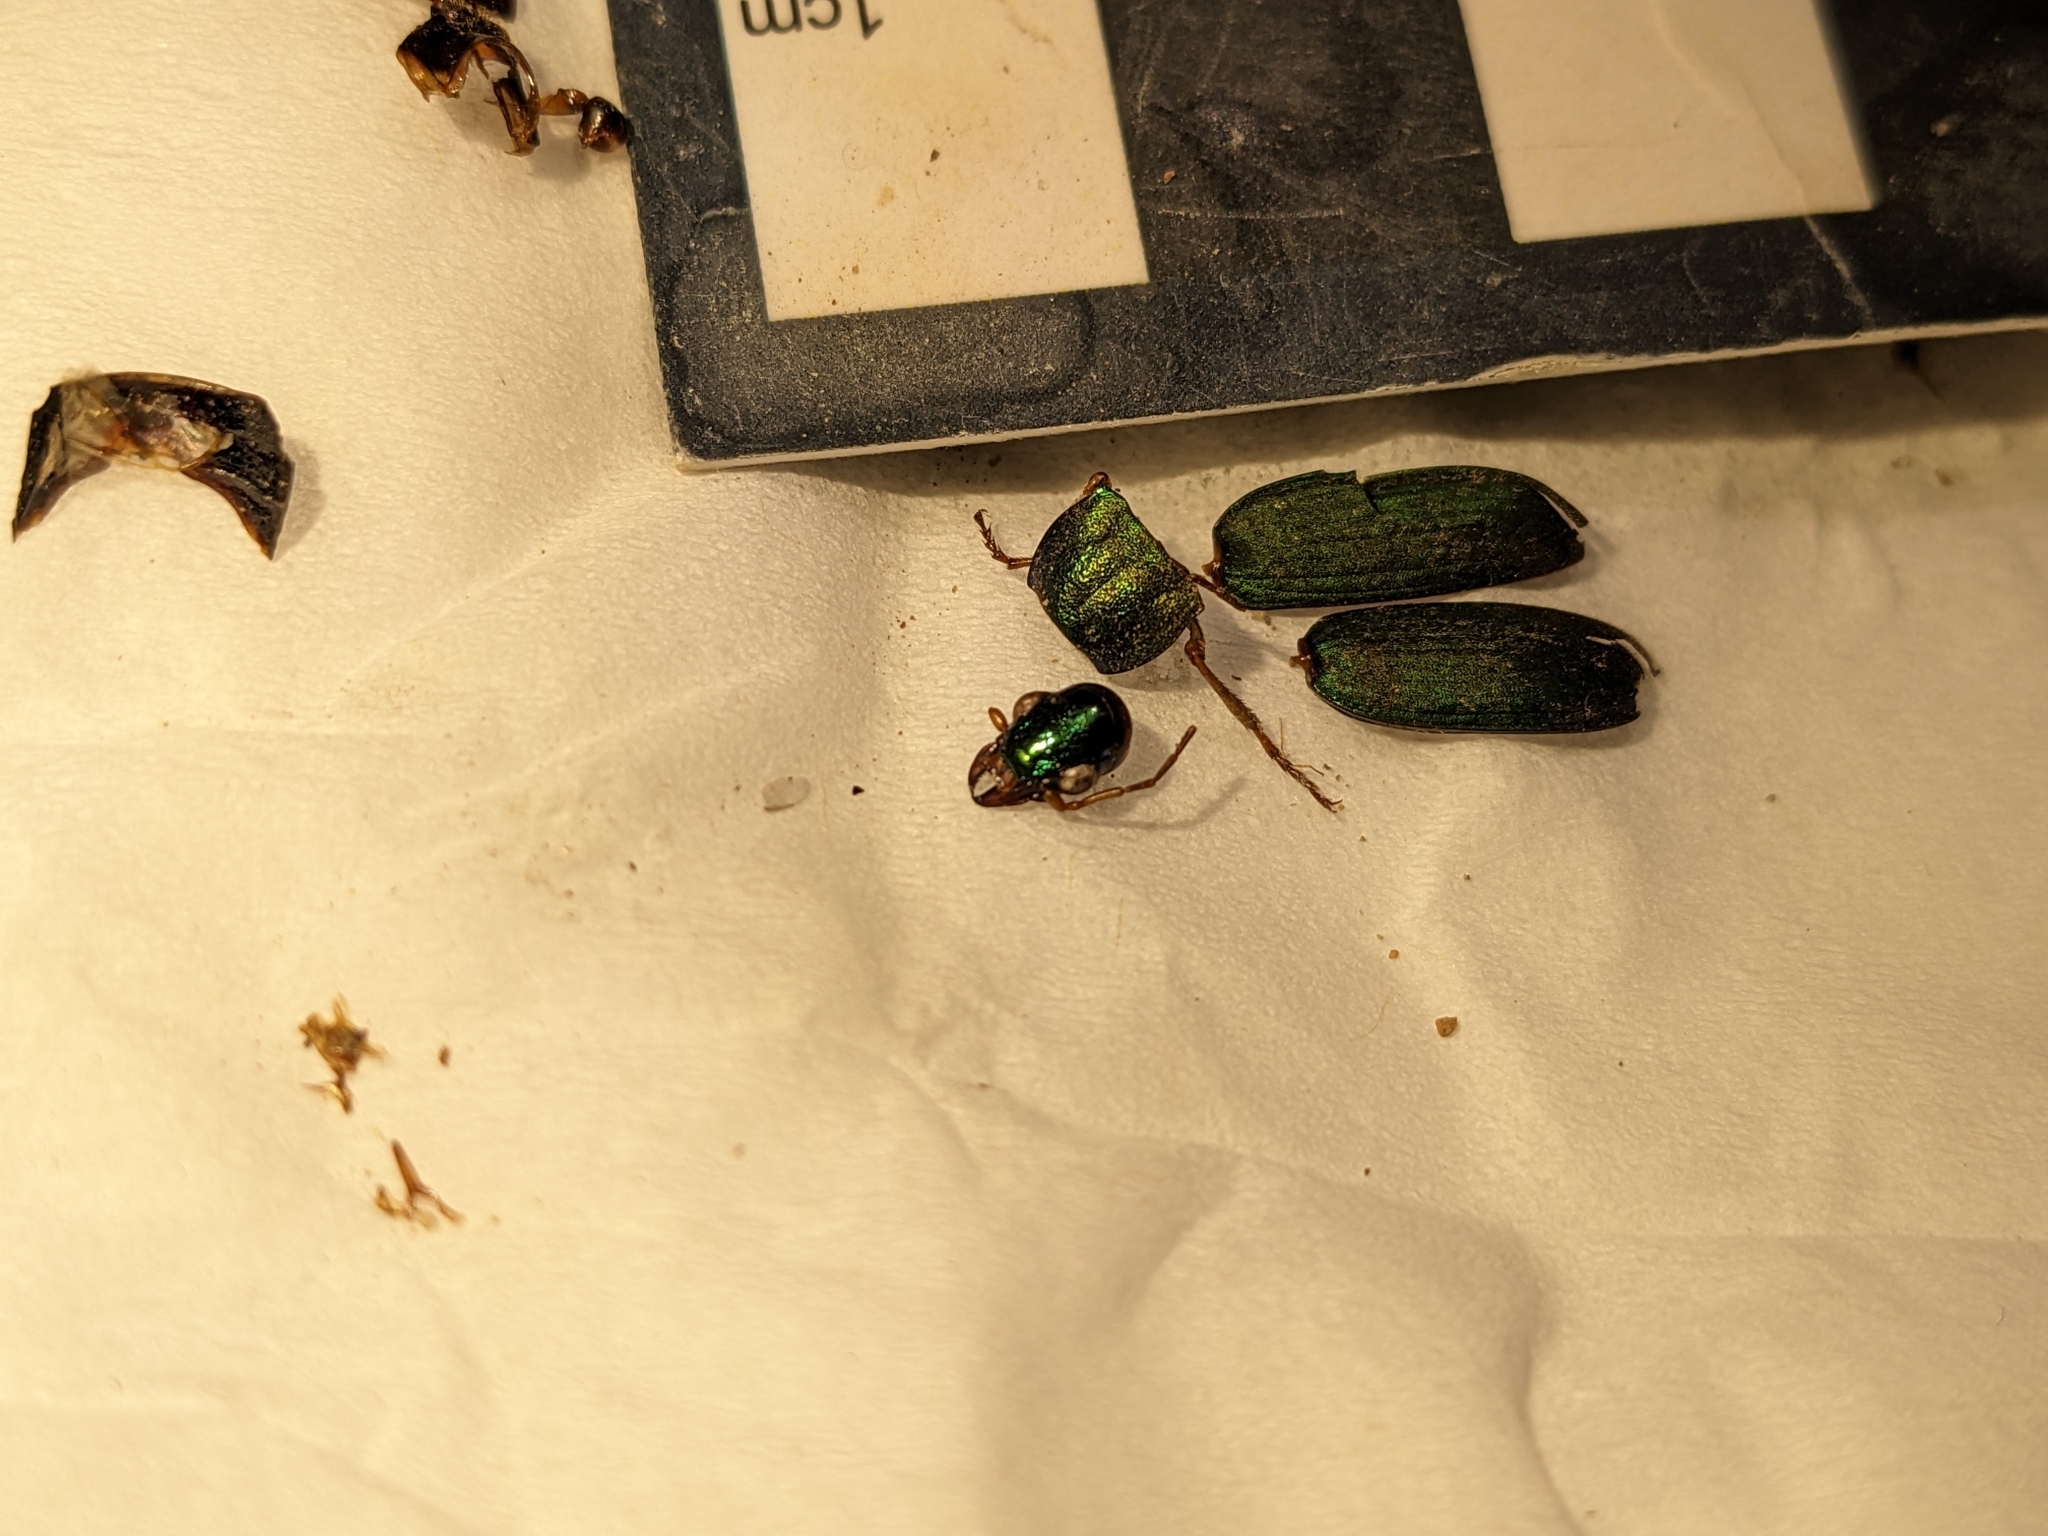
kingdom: Animalia
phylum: Arthropoda
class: Insecta
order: Coleoptera
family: Carabidae
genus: Chlaenius
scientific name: Chlaenius sericeus
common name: Green pubescent ground beetle
